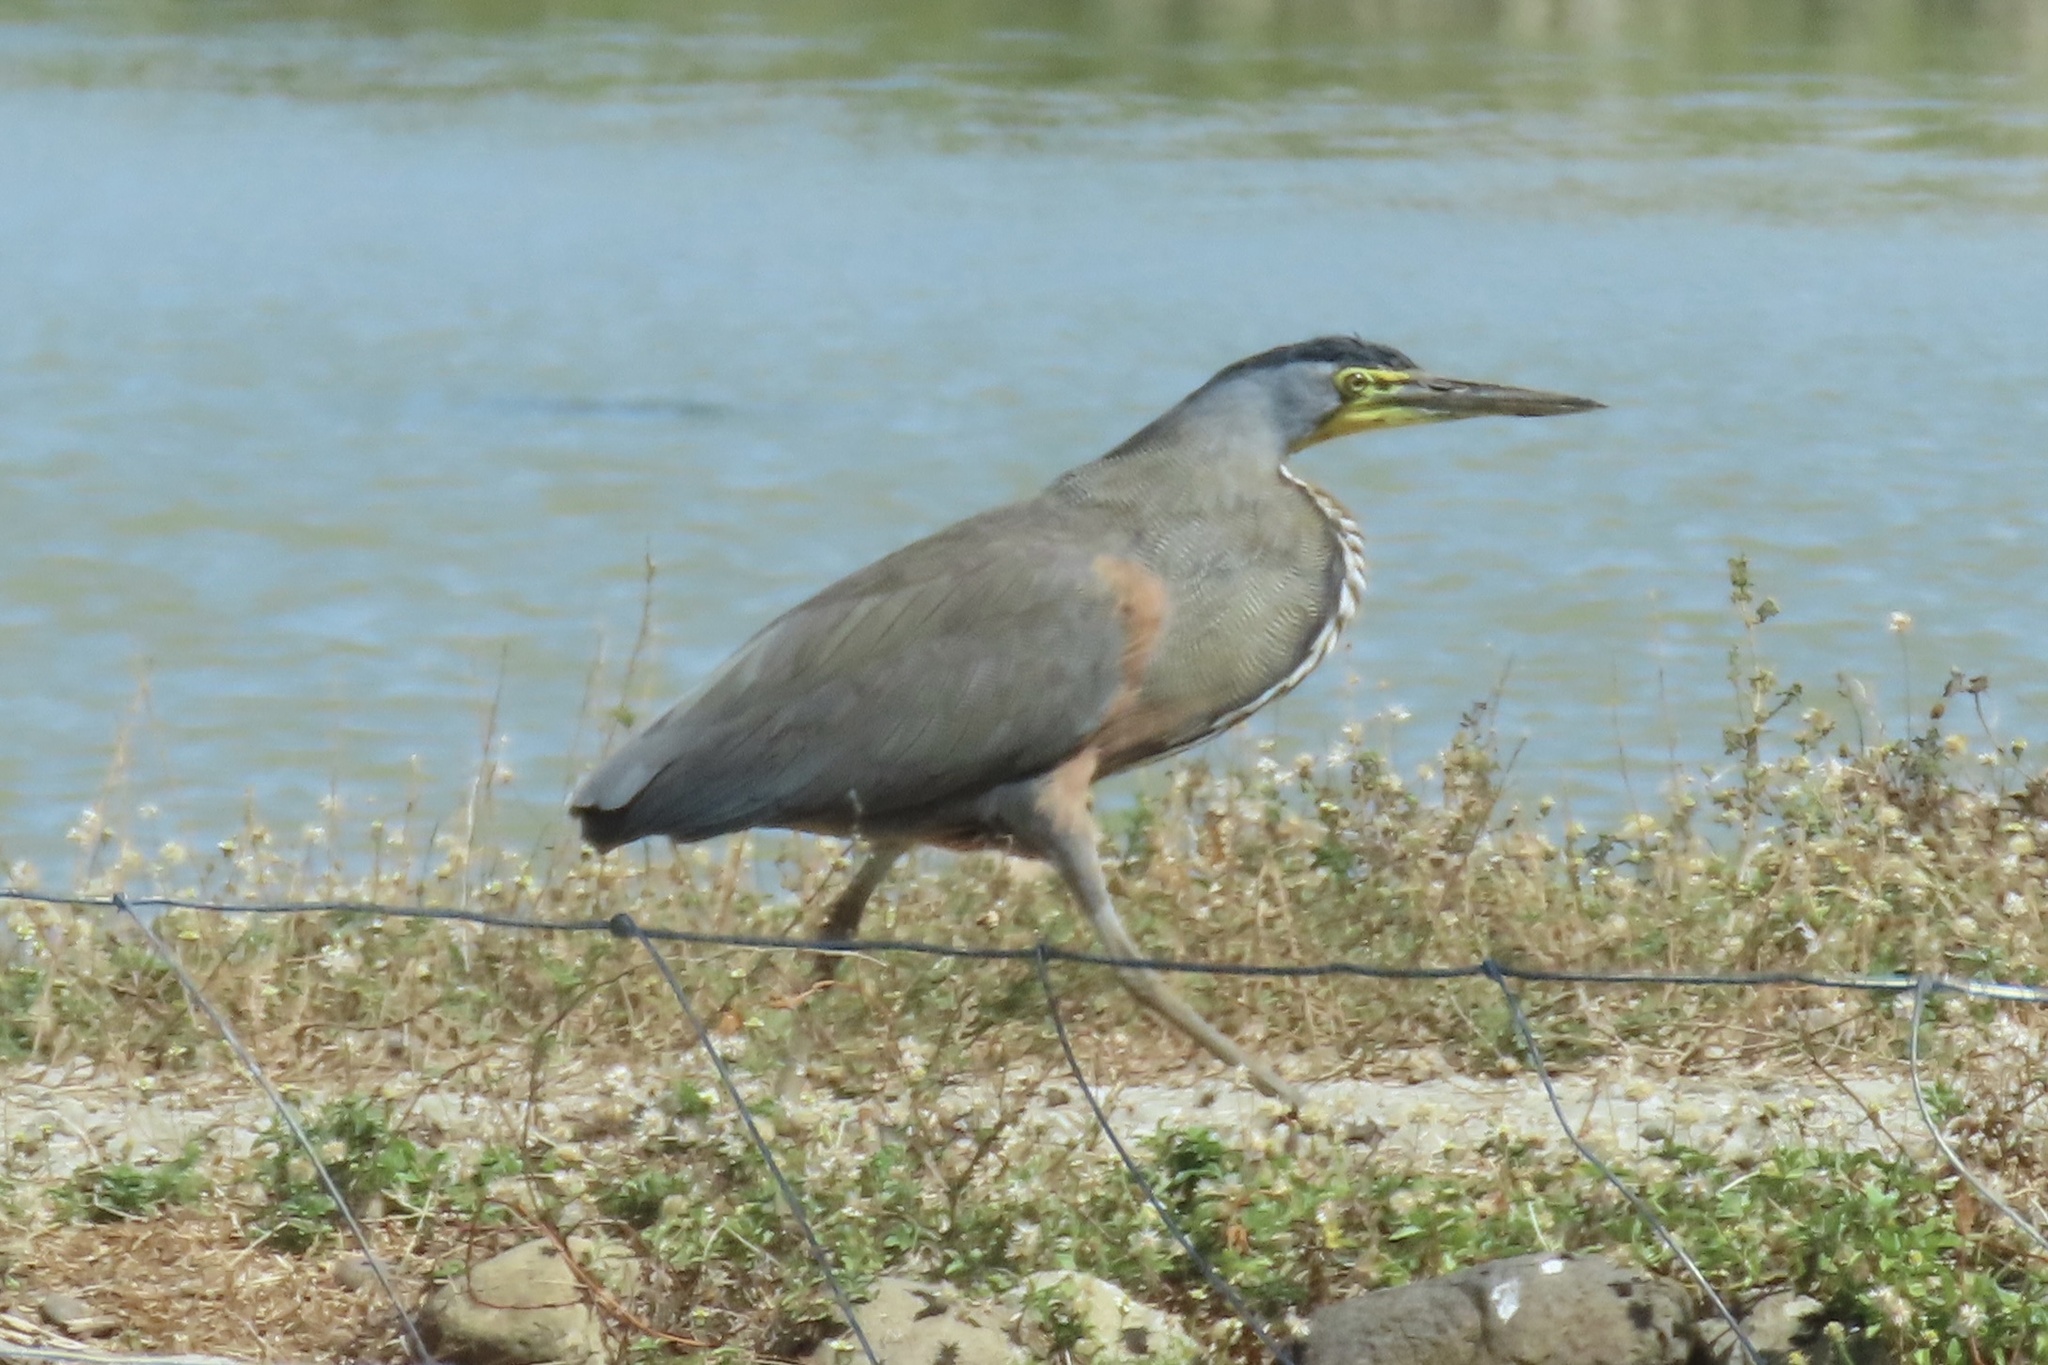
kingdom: Animalia
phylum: Chordata
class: Aves
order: Pelecaniformes
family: Ardeidae
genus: Tigrisoma
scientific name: Tigrisoma mexicanum
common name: Bare-throated tiger-heron
